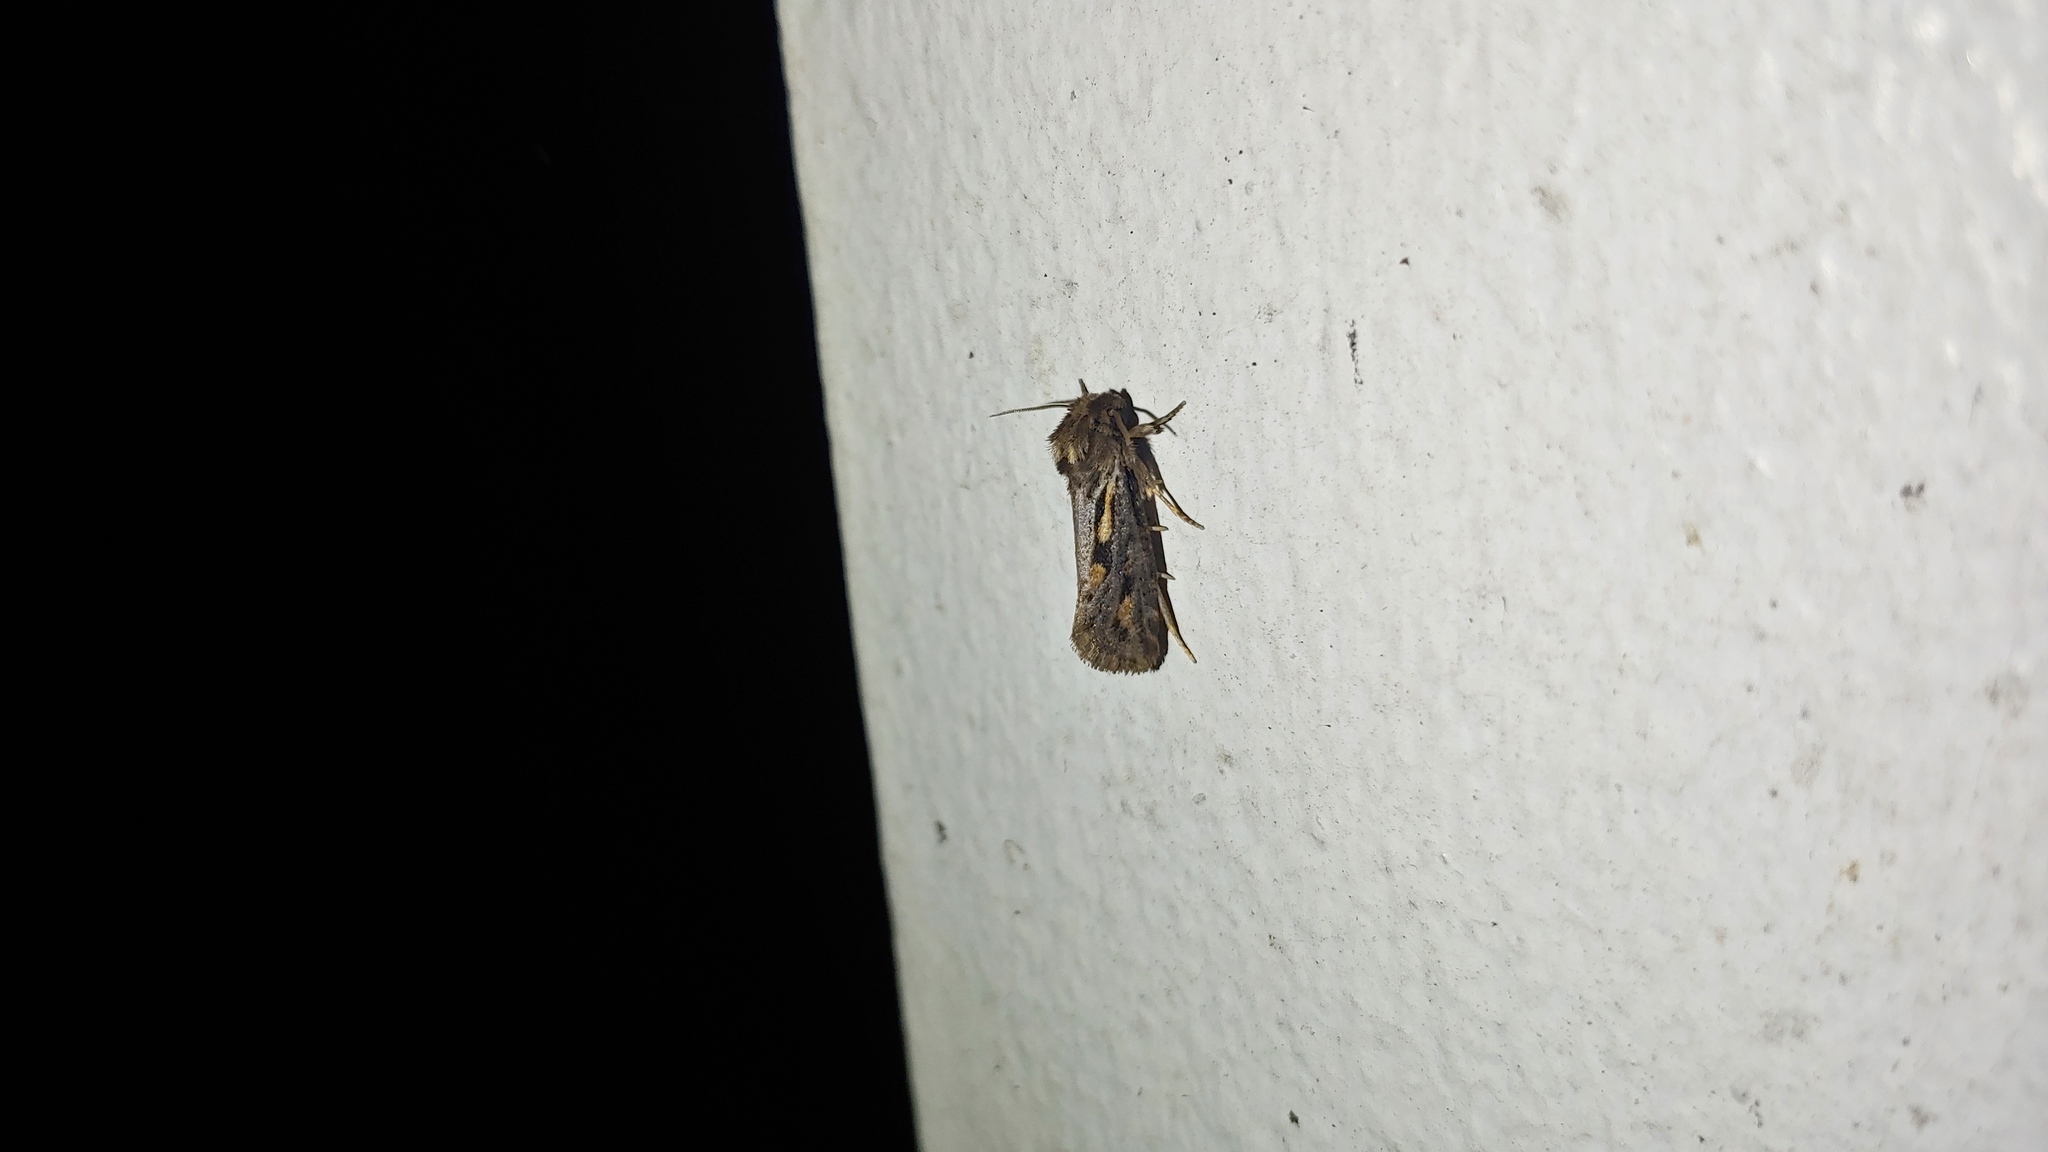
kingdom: Animalia
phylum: Arthropoda
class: Insecta
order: Lepidoptera
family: Tineidae
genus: Acrolophus
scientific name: Acrolophus popeanella
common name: Clemens' grass tubeworm moth
